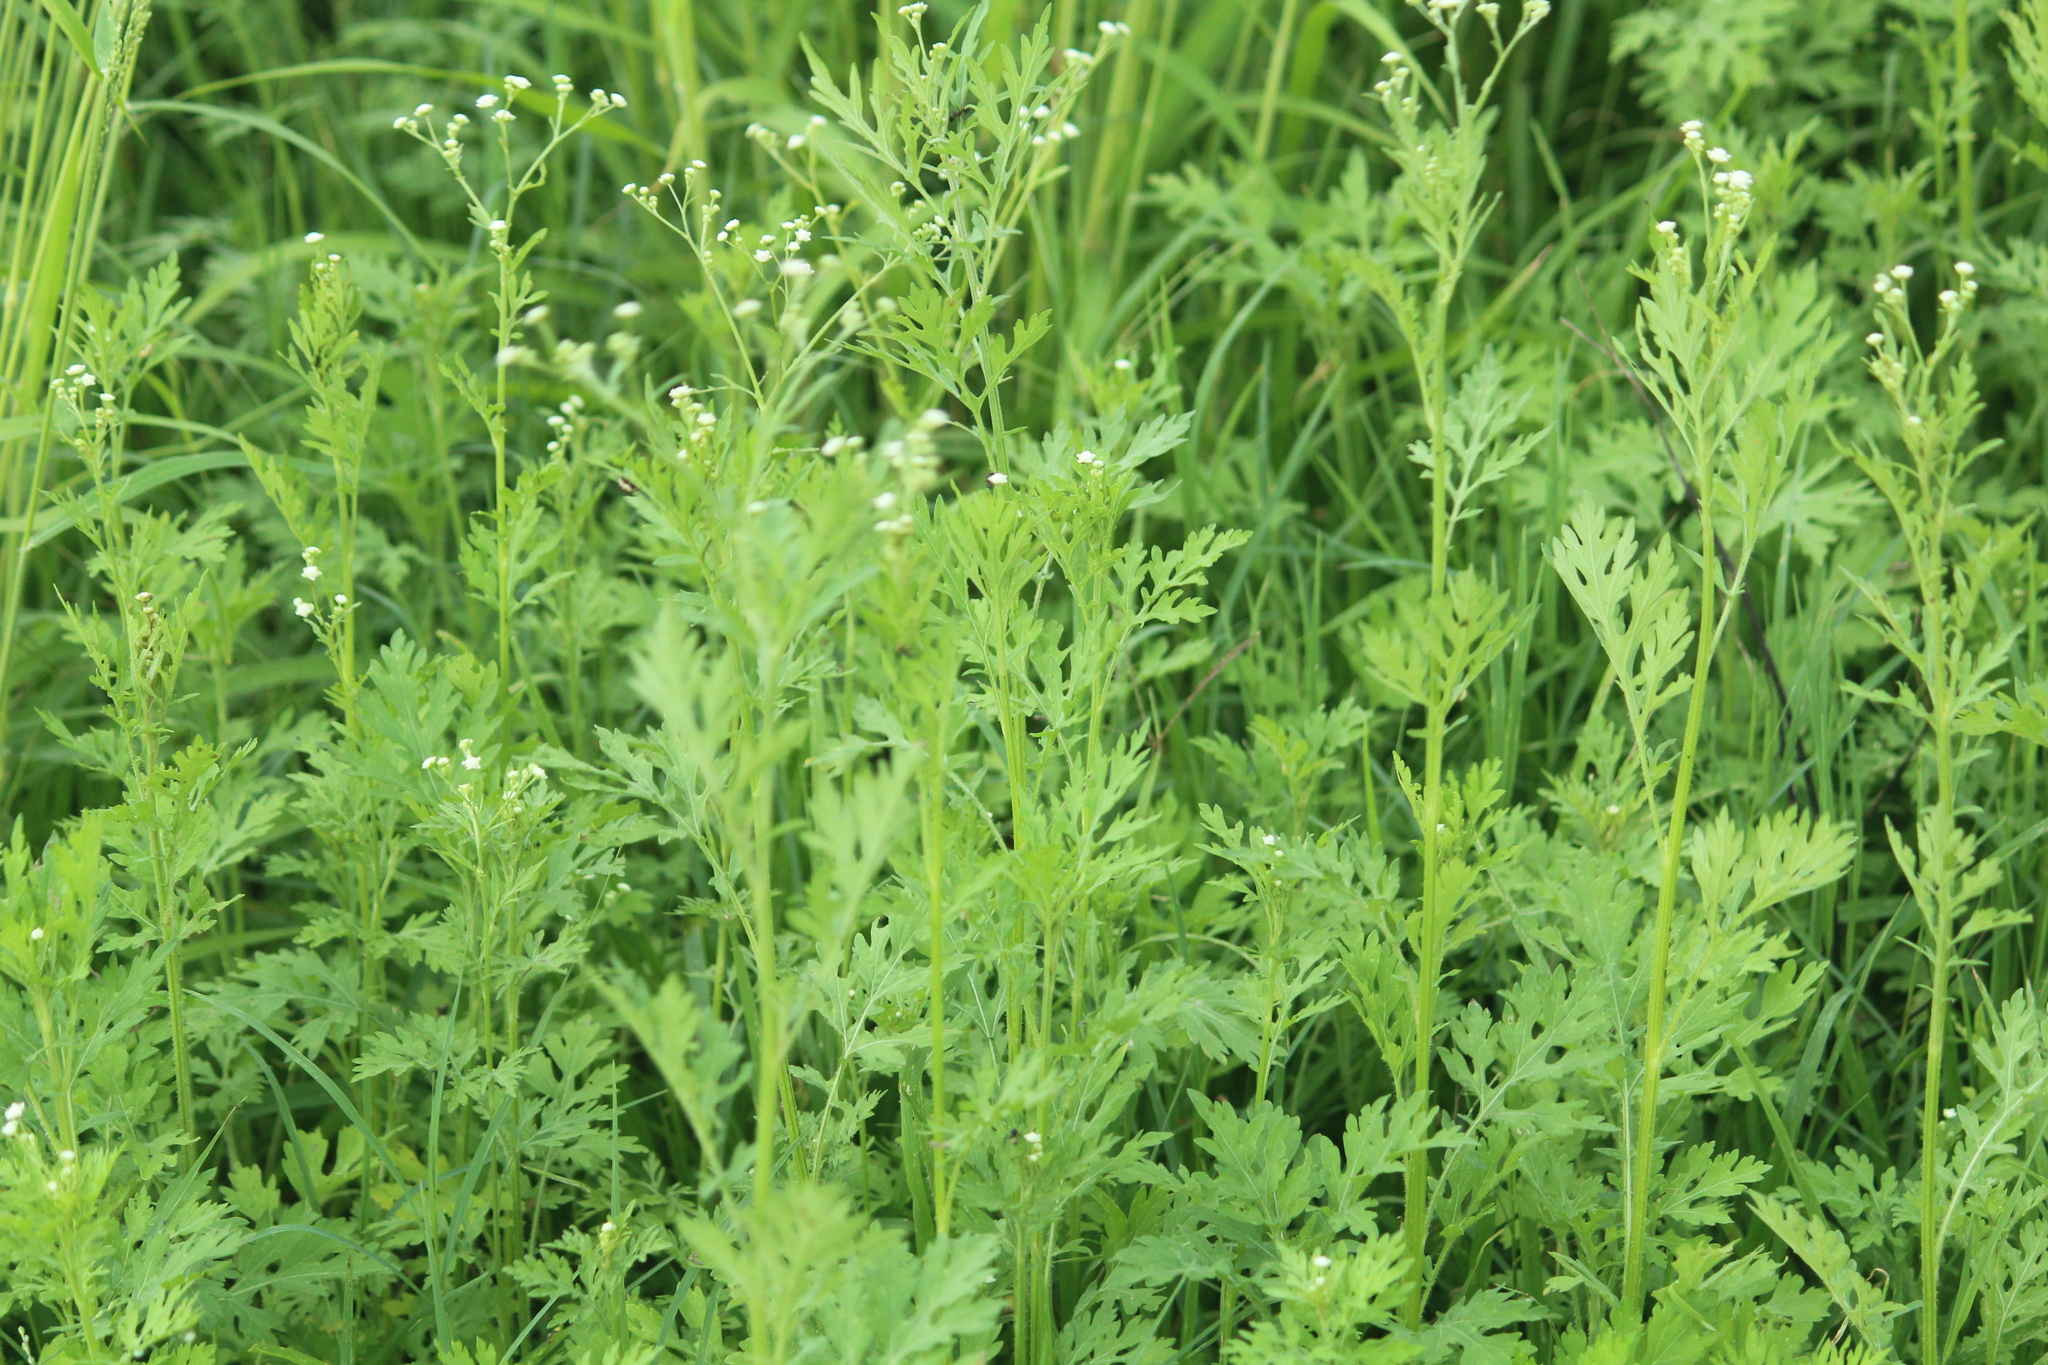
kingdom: Plantae
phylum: Tracheophyta
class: Magnoliopsida
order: Asterales
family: Asteraceae
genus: Parthenium
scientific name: Parthenium hysterophorus
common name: Santa maria feverfew
